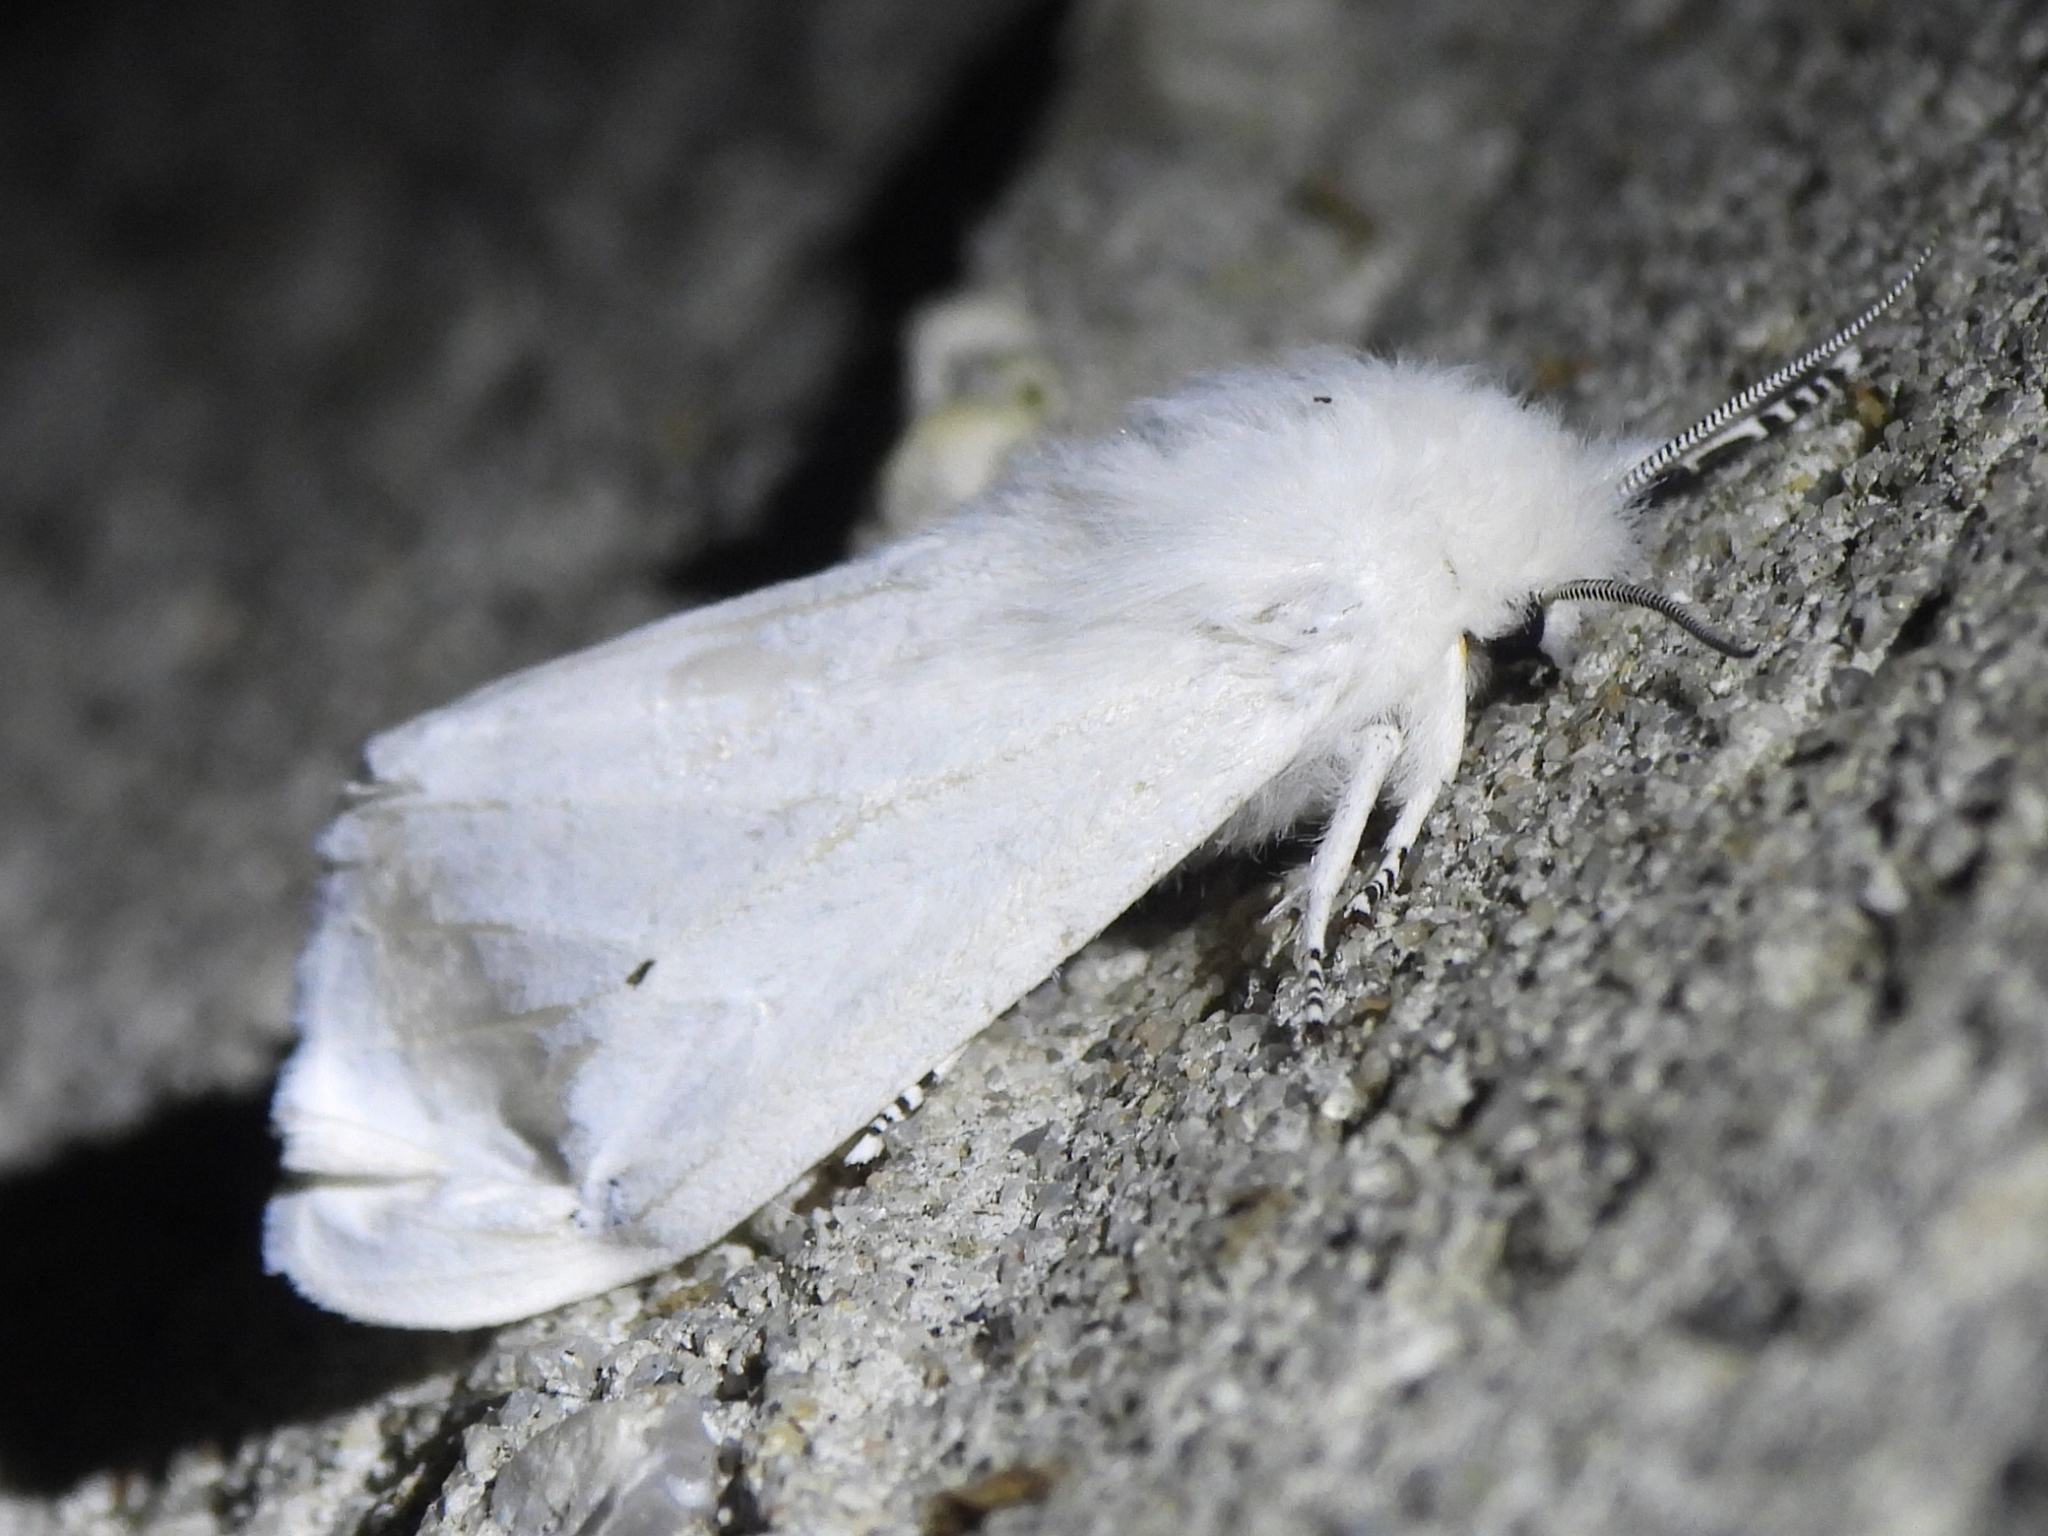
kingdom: Animalia
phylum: Arthropoda
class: Insecta
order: Lepidoptera
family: Erebidae
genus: Spilosoma
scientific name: Spilosoma virginica
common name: Virginia tiger moth
